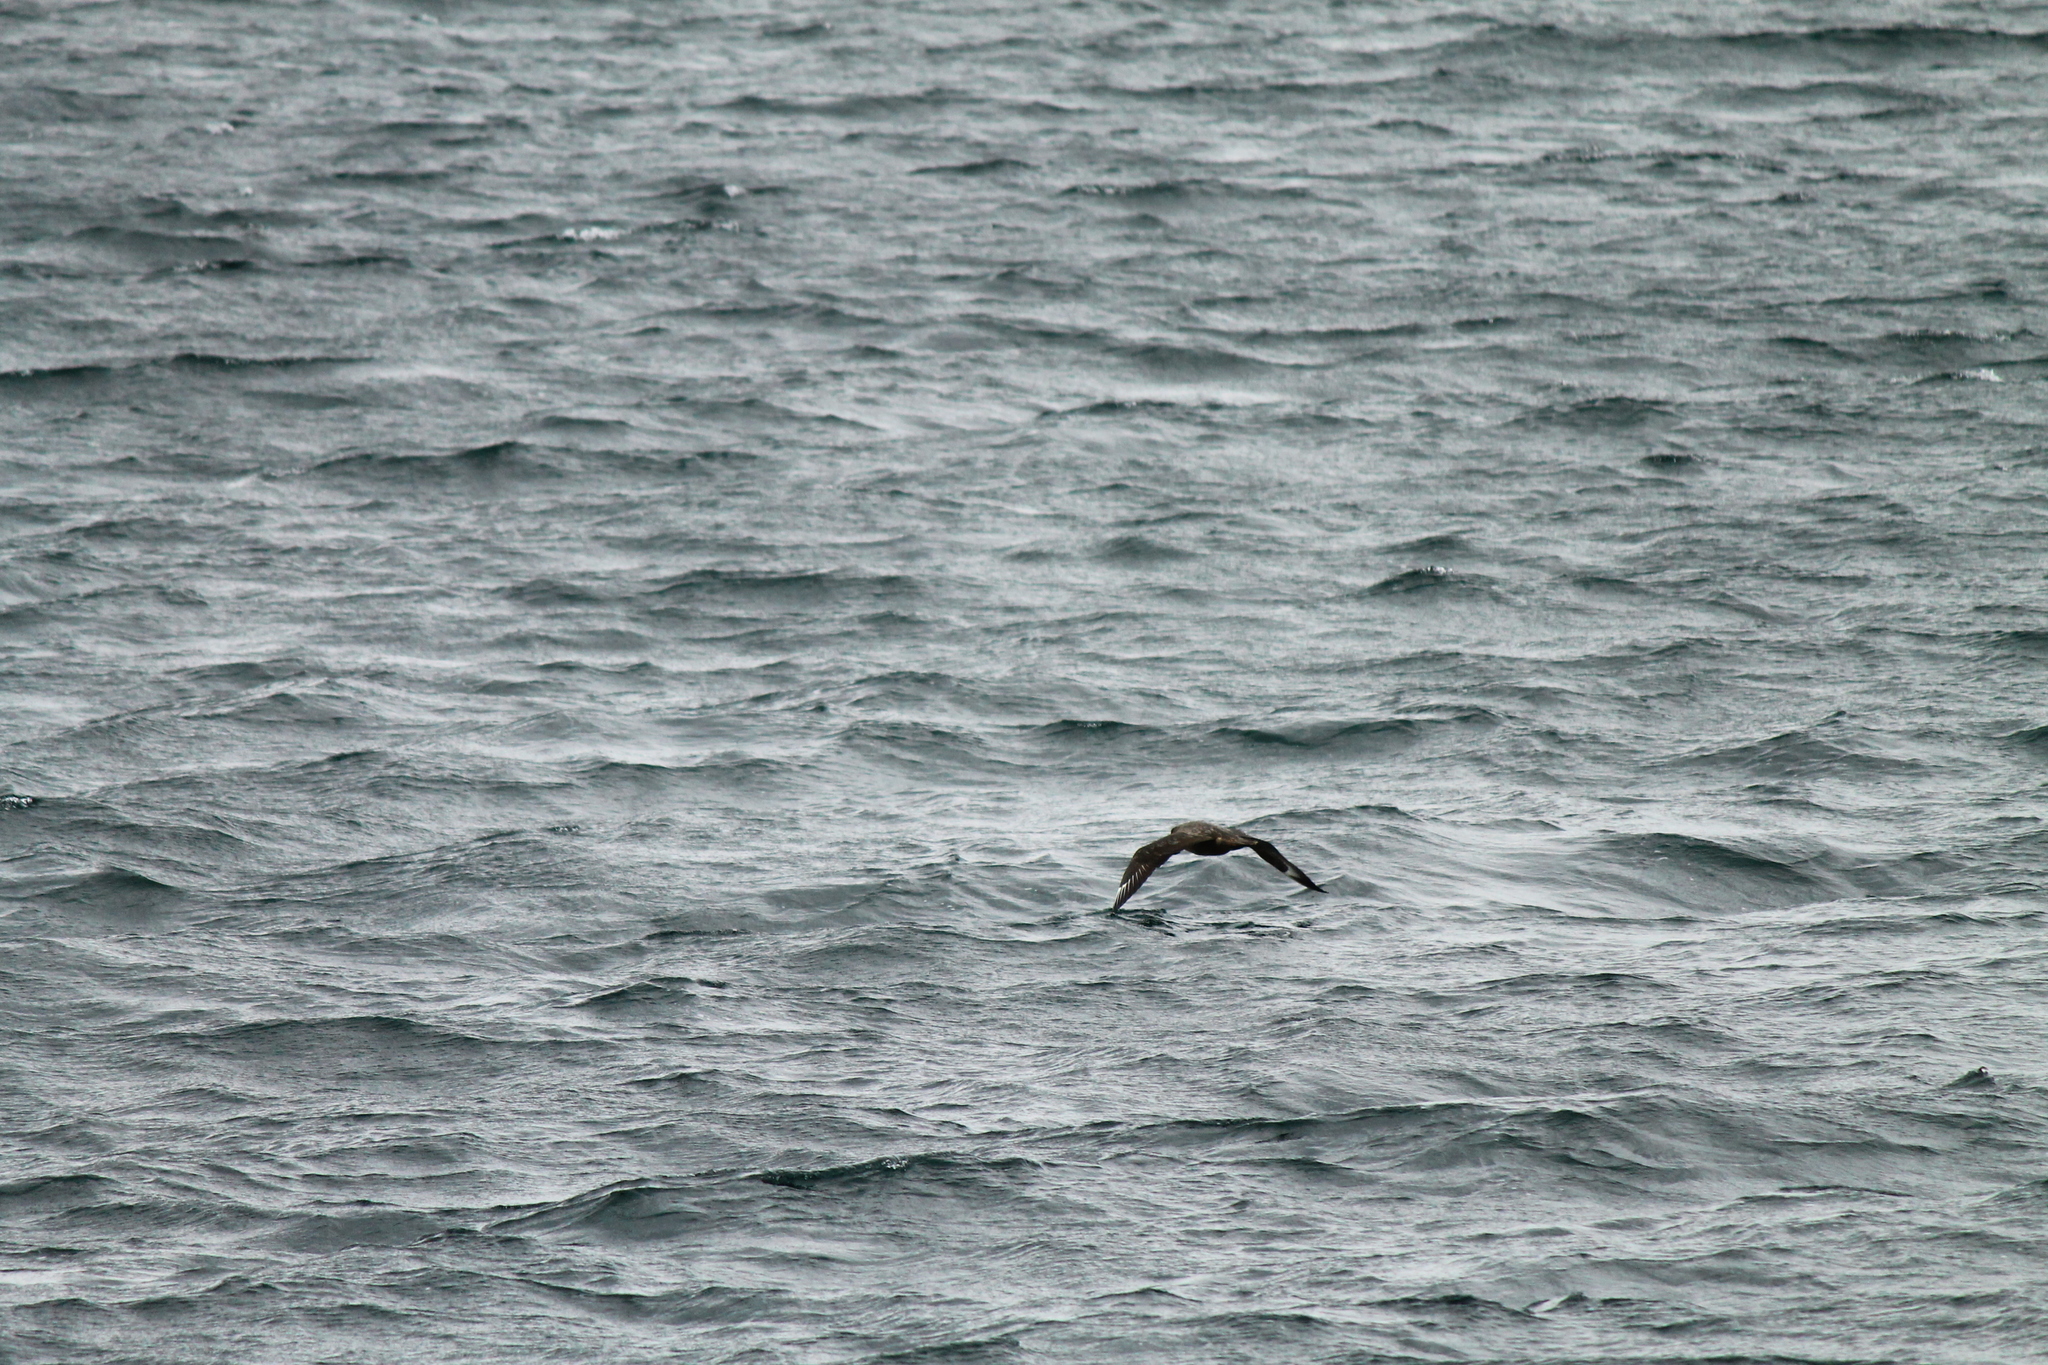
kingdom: Animalia
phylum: Chordata
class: Aves
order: Charadriiformes
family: Stercorariidae
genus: Stercorarius
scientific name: Stercorarius antarcticus
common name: Brown skua
